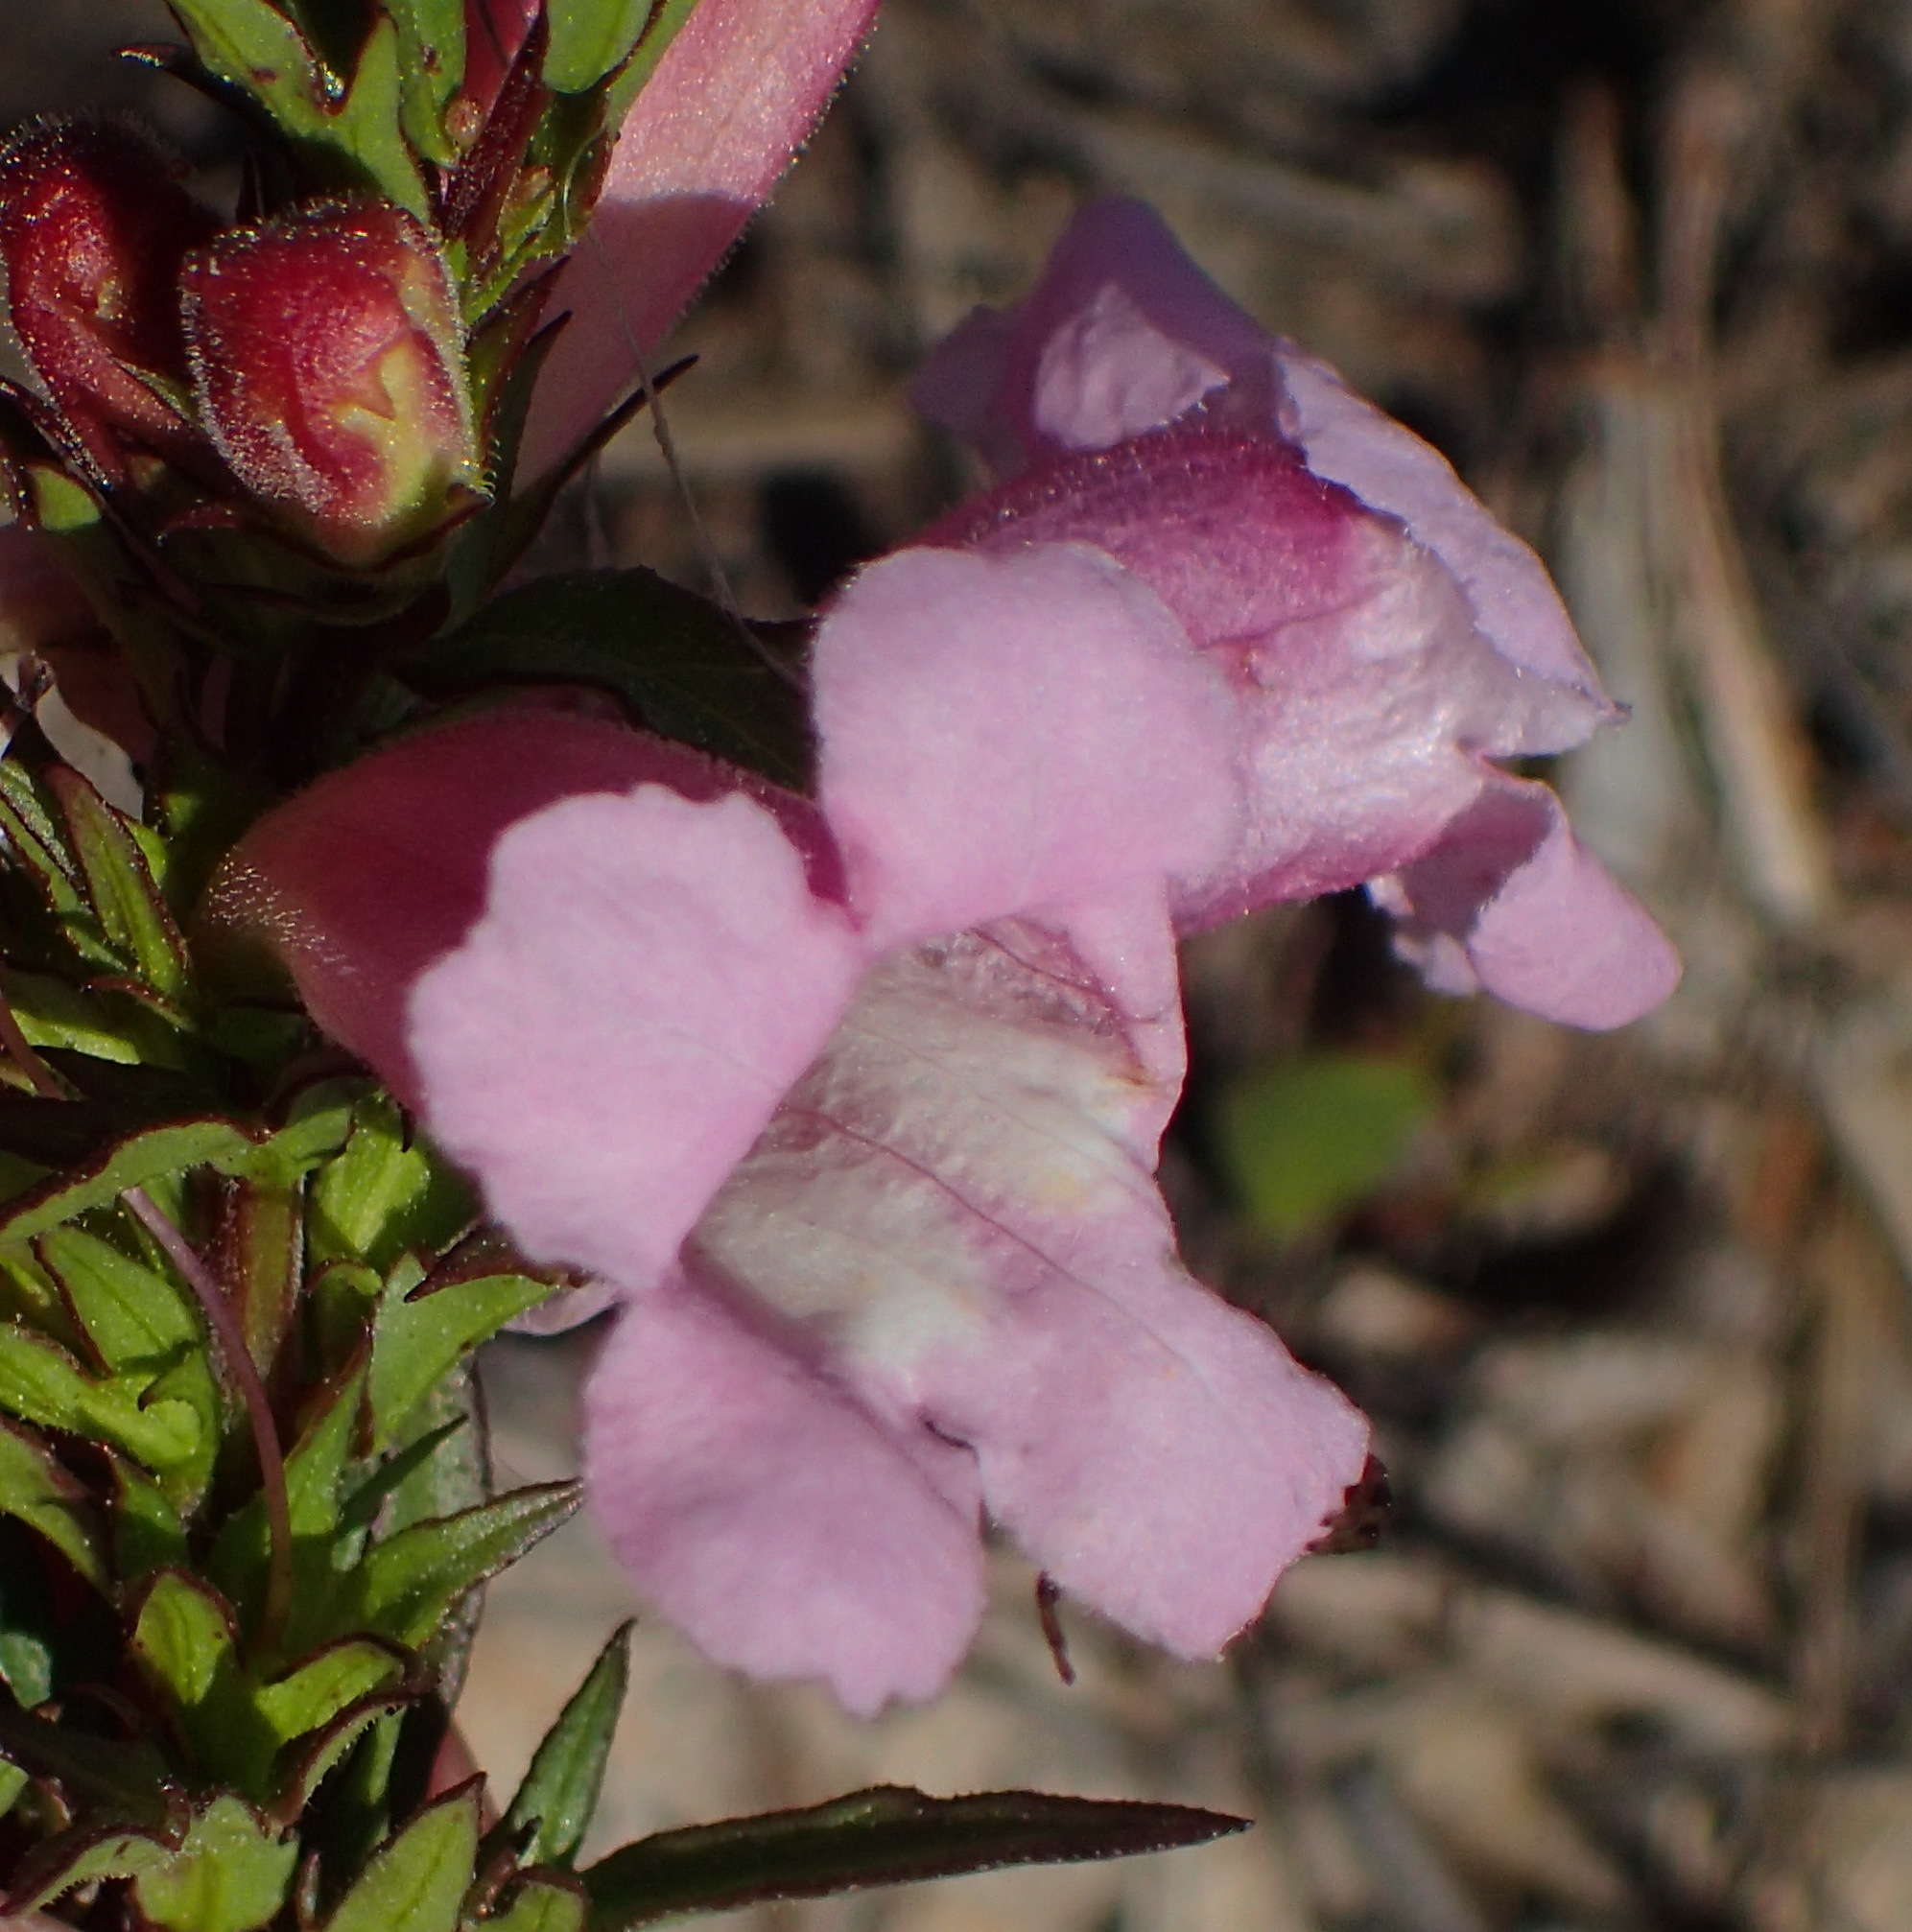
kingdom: Plantae
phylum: Tracheophyta
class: Magnoliopsida
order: Lamiales
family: Orobanchaceae
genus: Graderia
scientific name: Graderia scabra
